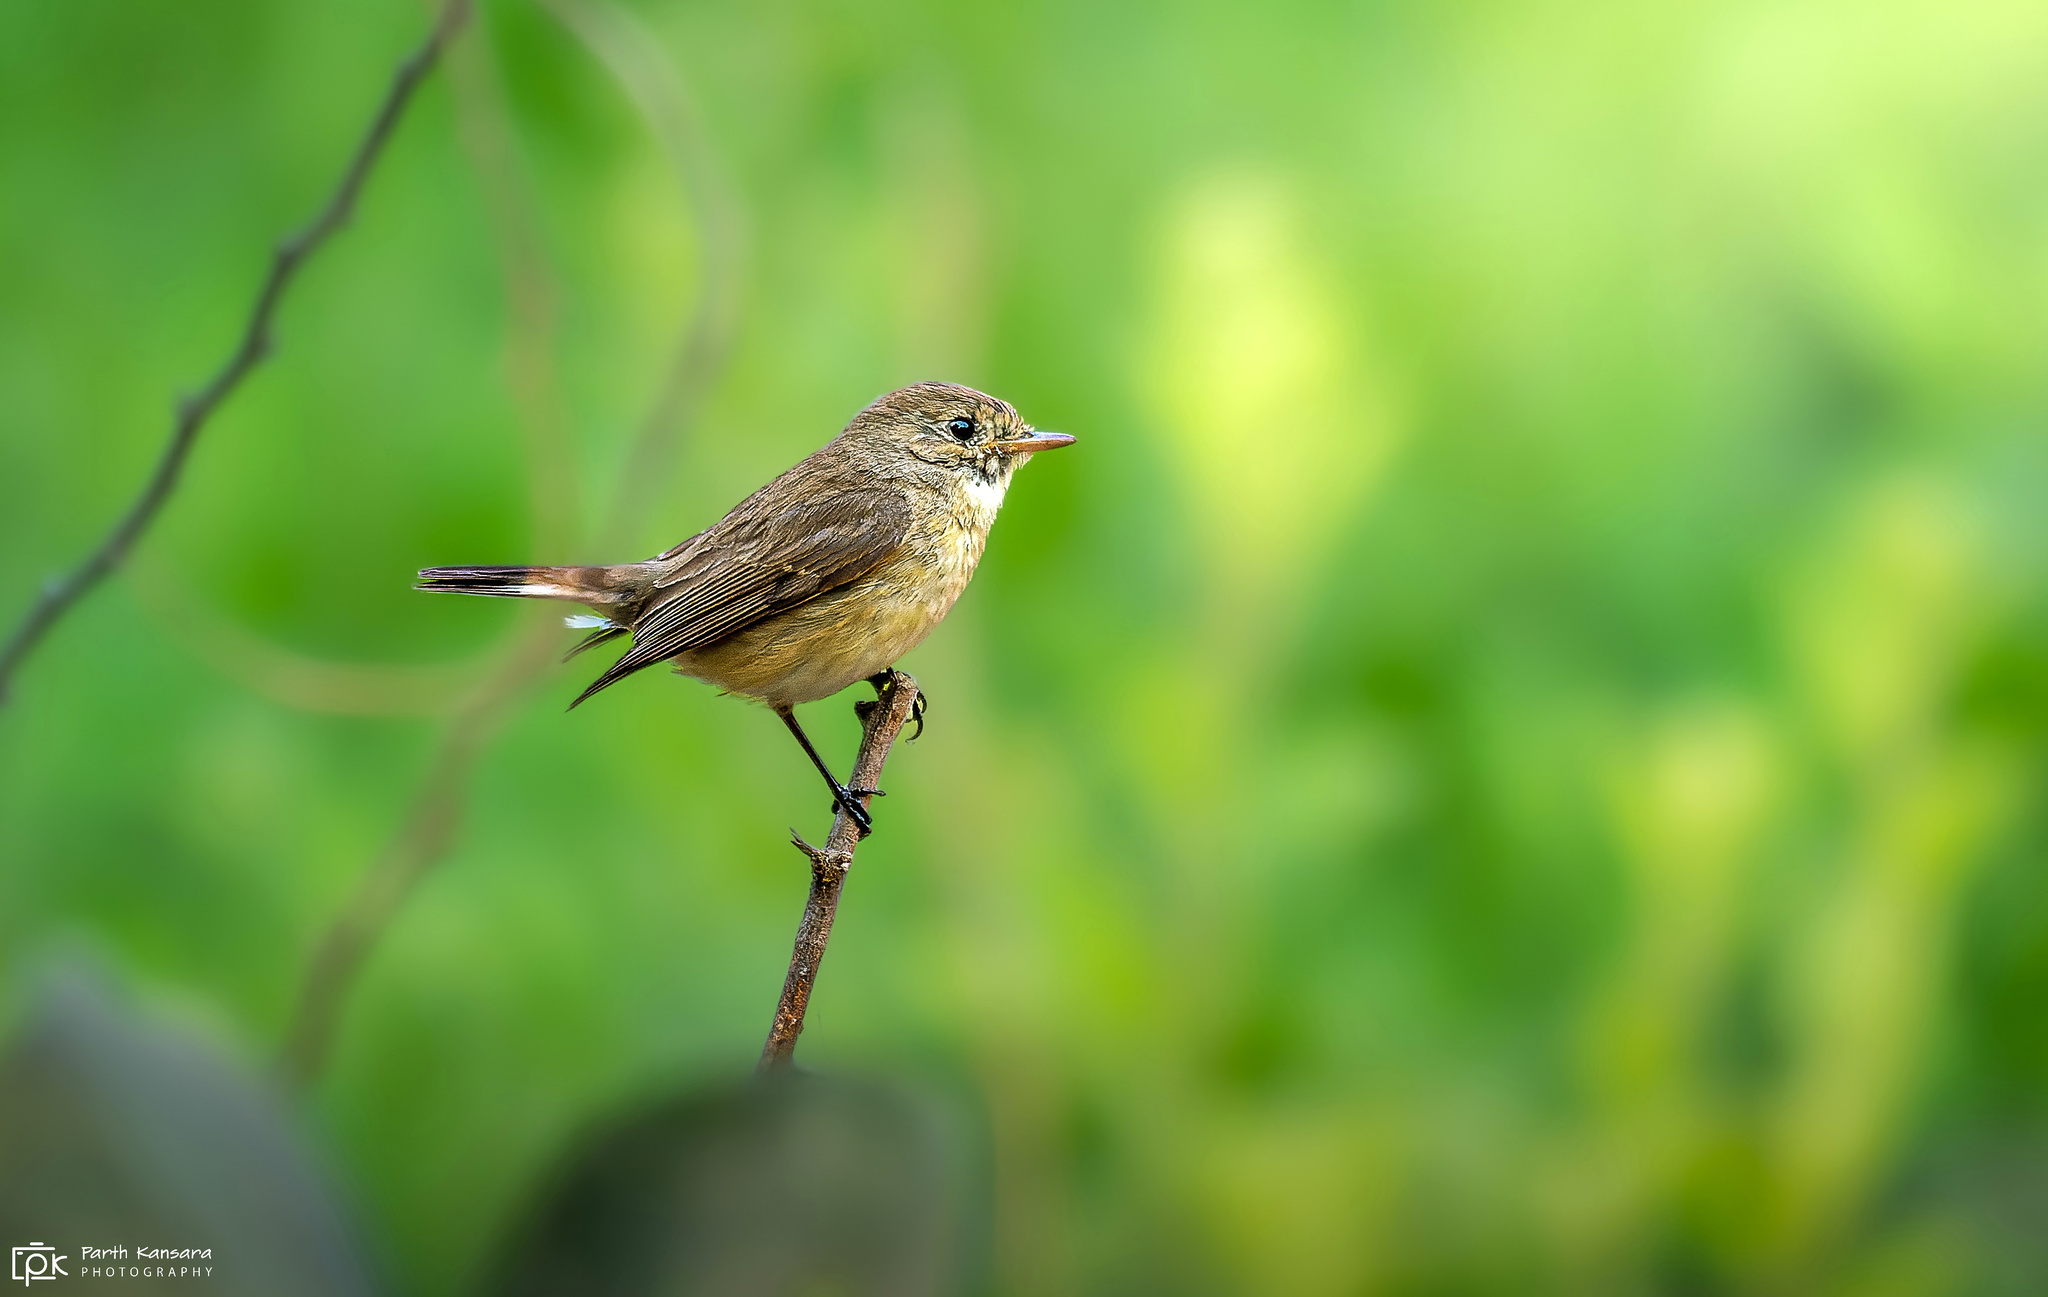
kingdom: Animalia
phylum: Chordata
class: Aves
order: Passeriformes
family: Muscicapidae
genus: Ficedula
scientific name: Ficedula parva
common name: Red-breasted flycatcher
